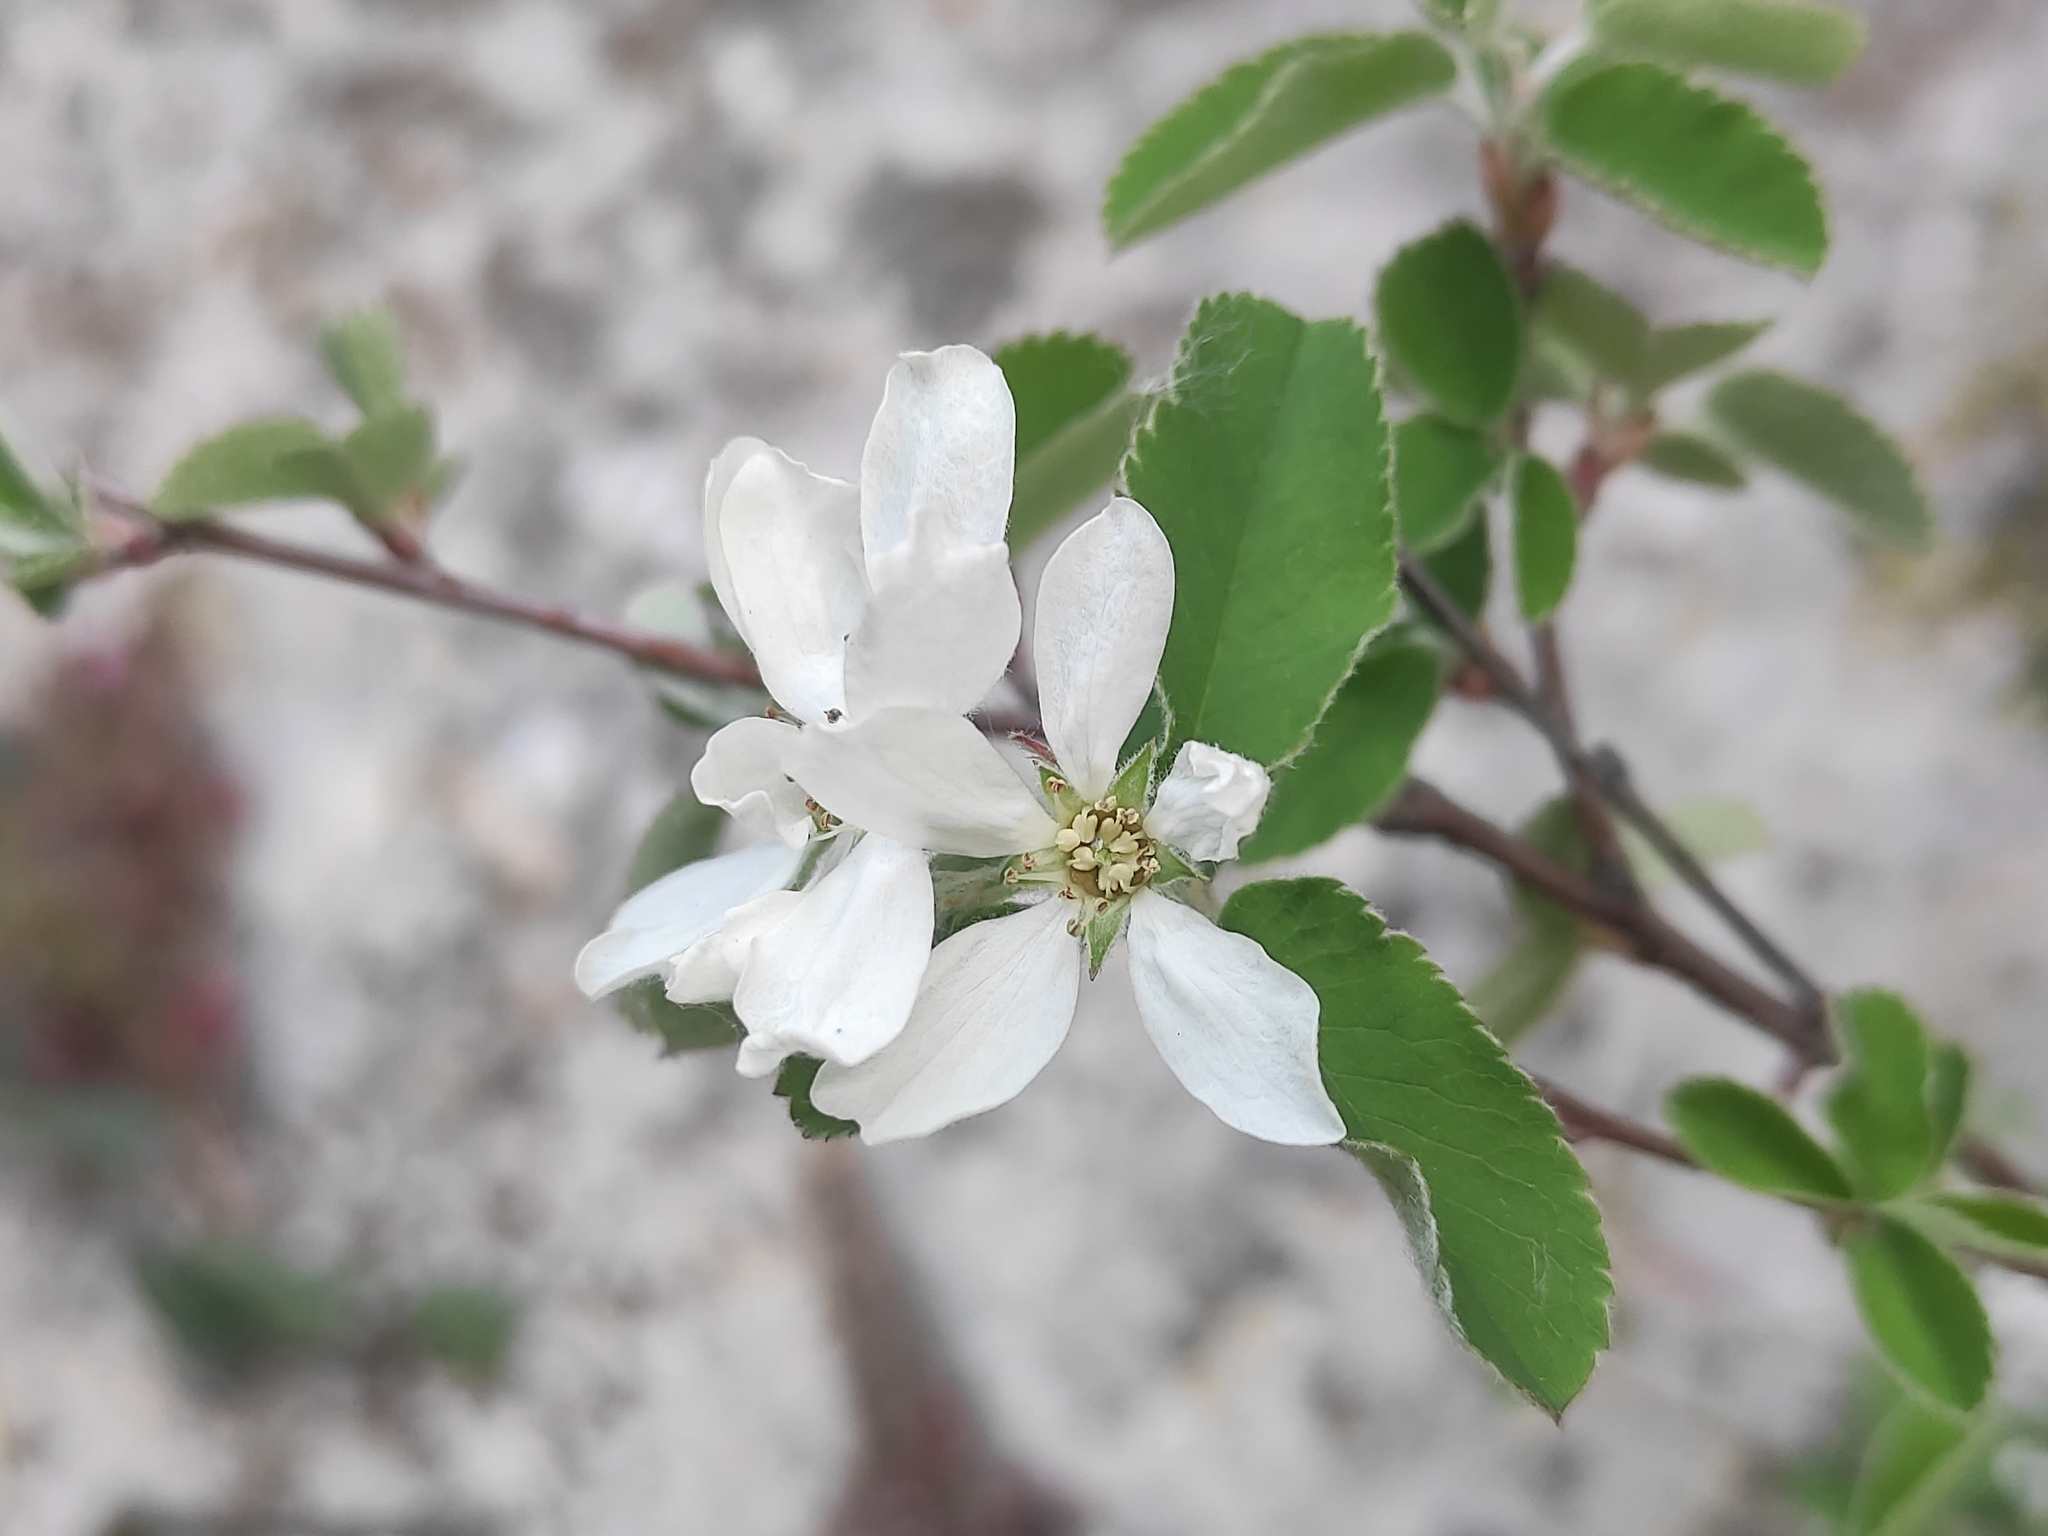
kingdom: Plantae
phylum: Tracheophyta
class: Magnoliopsida
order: Rosales
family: Rosaceae
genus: Amelanchier
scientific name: Amelanchier ovalis
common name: Serviceberry
